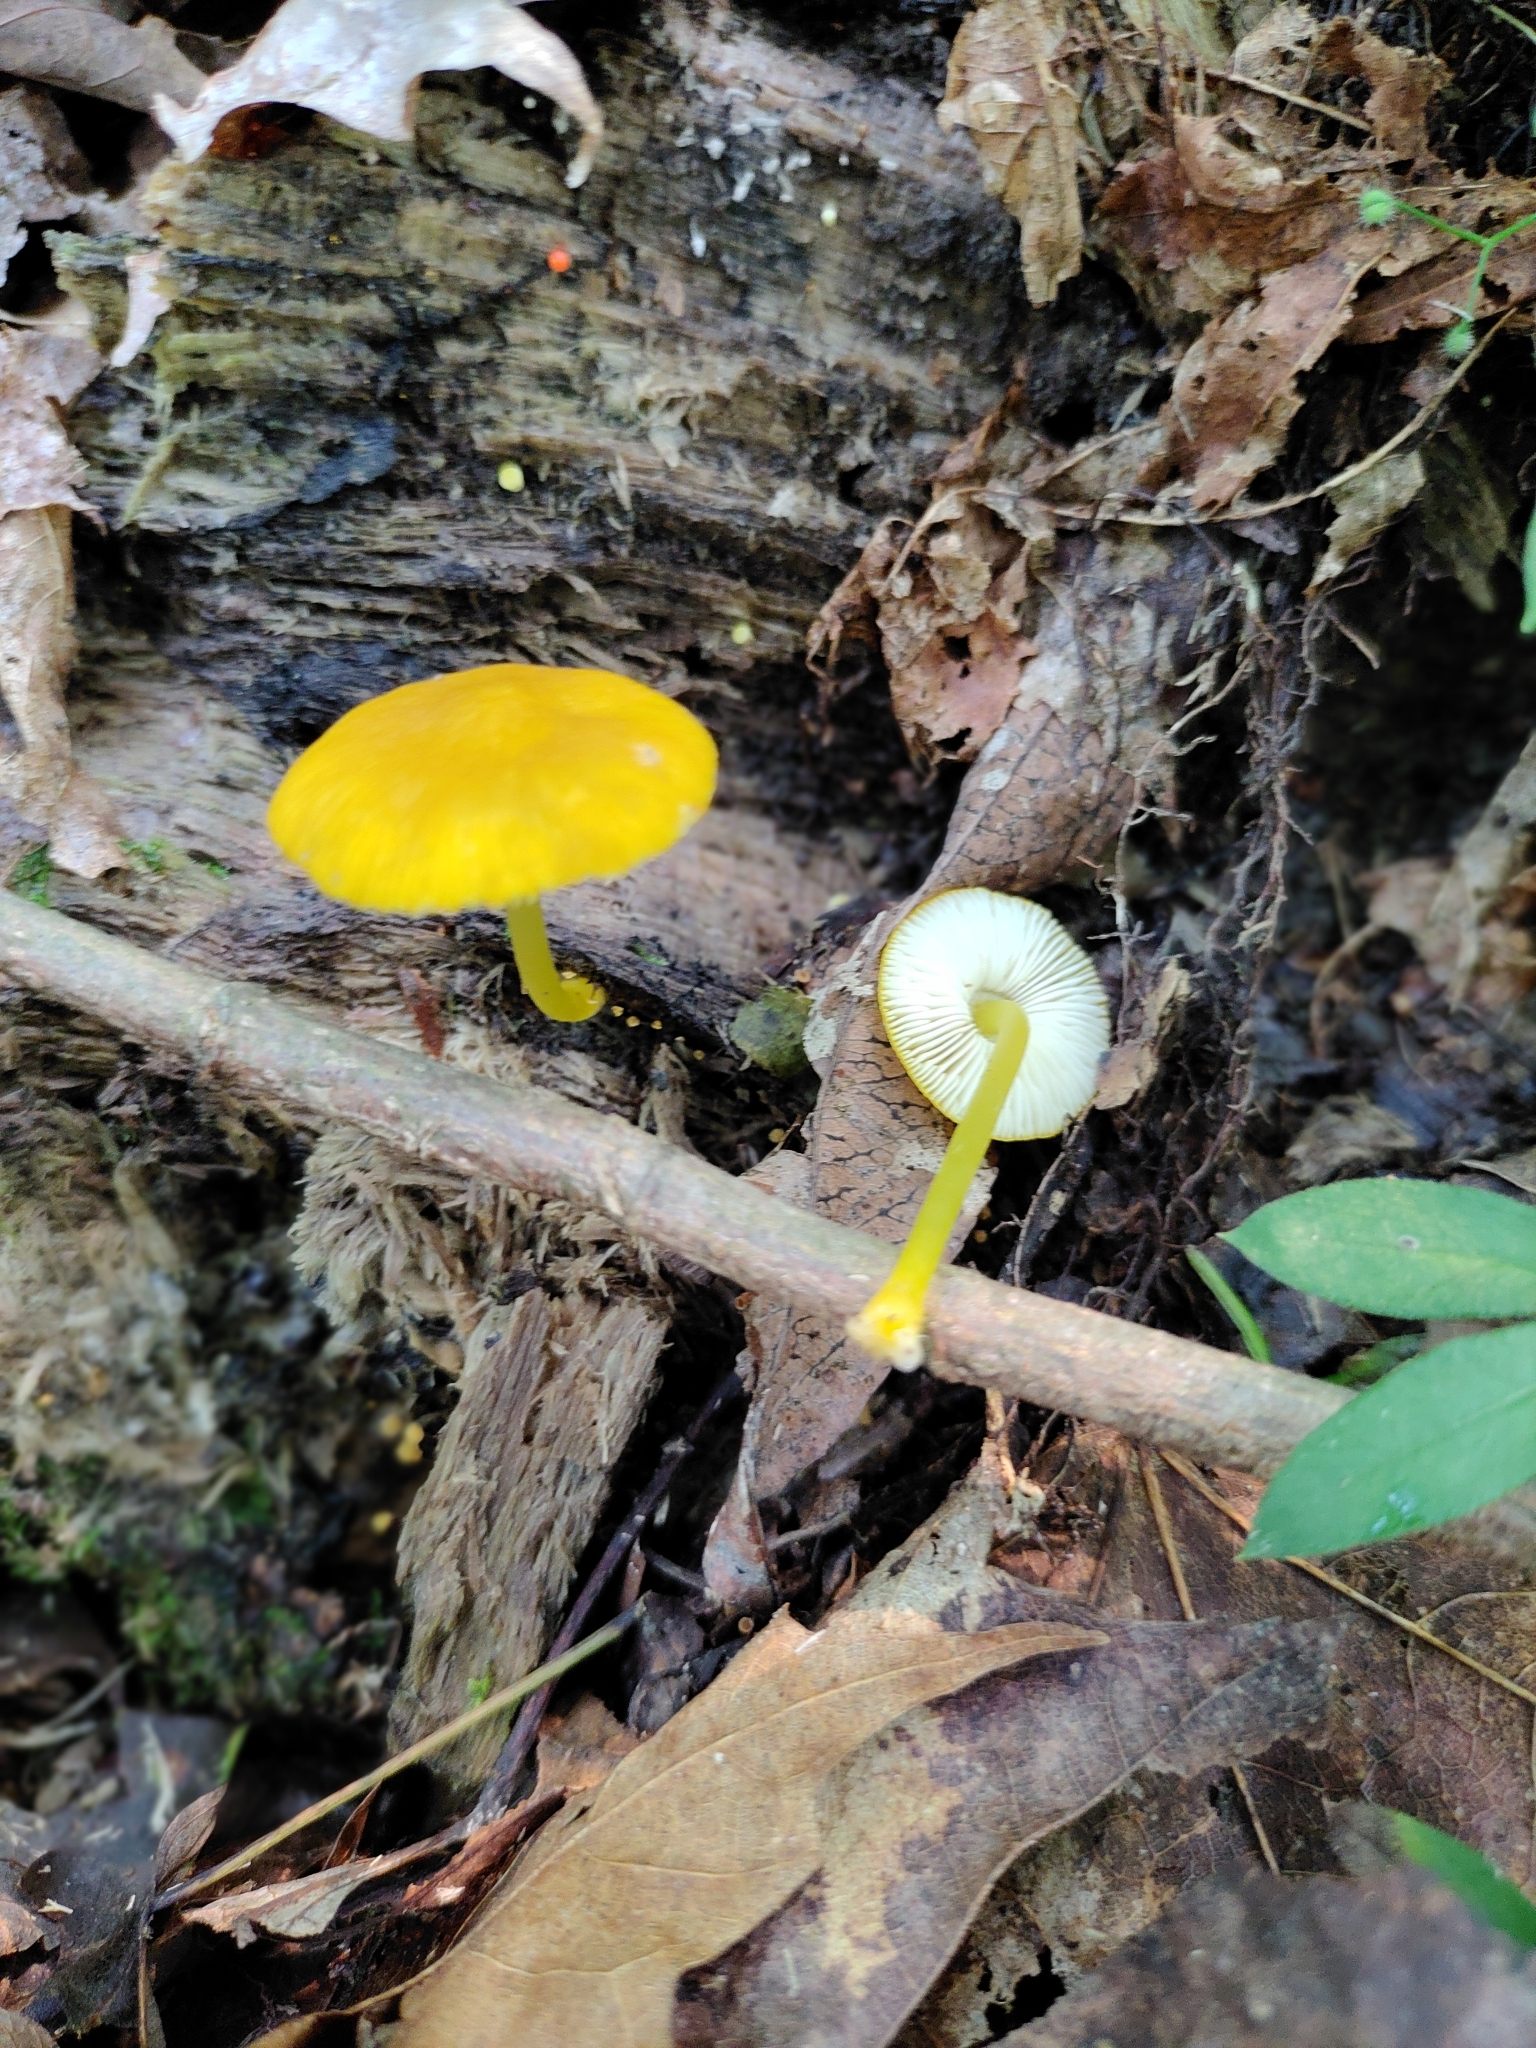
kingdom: Fungi
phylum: Basidiomycota
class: Agaricomycetes
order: Agaricales
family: Pluteaceae
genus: Pluteus
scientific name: Pluteus chrysophlebius
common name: Yellow deer mushroom
